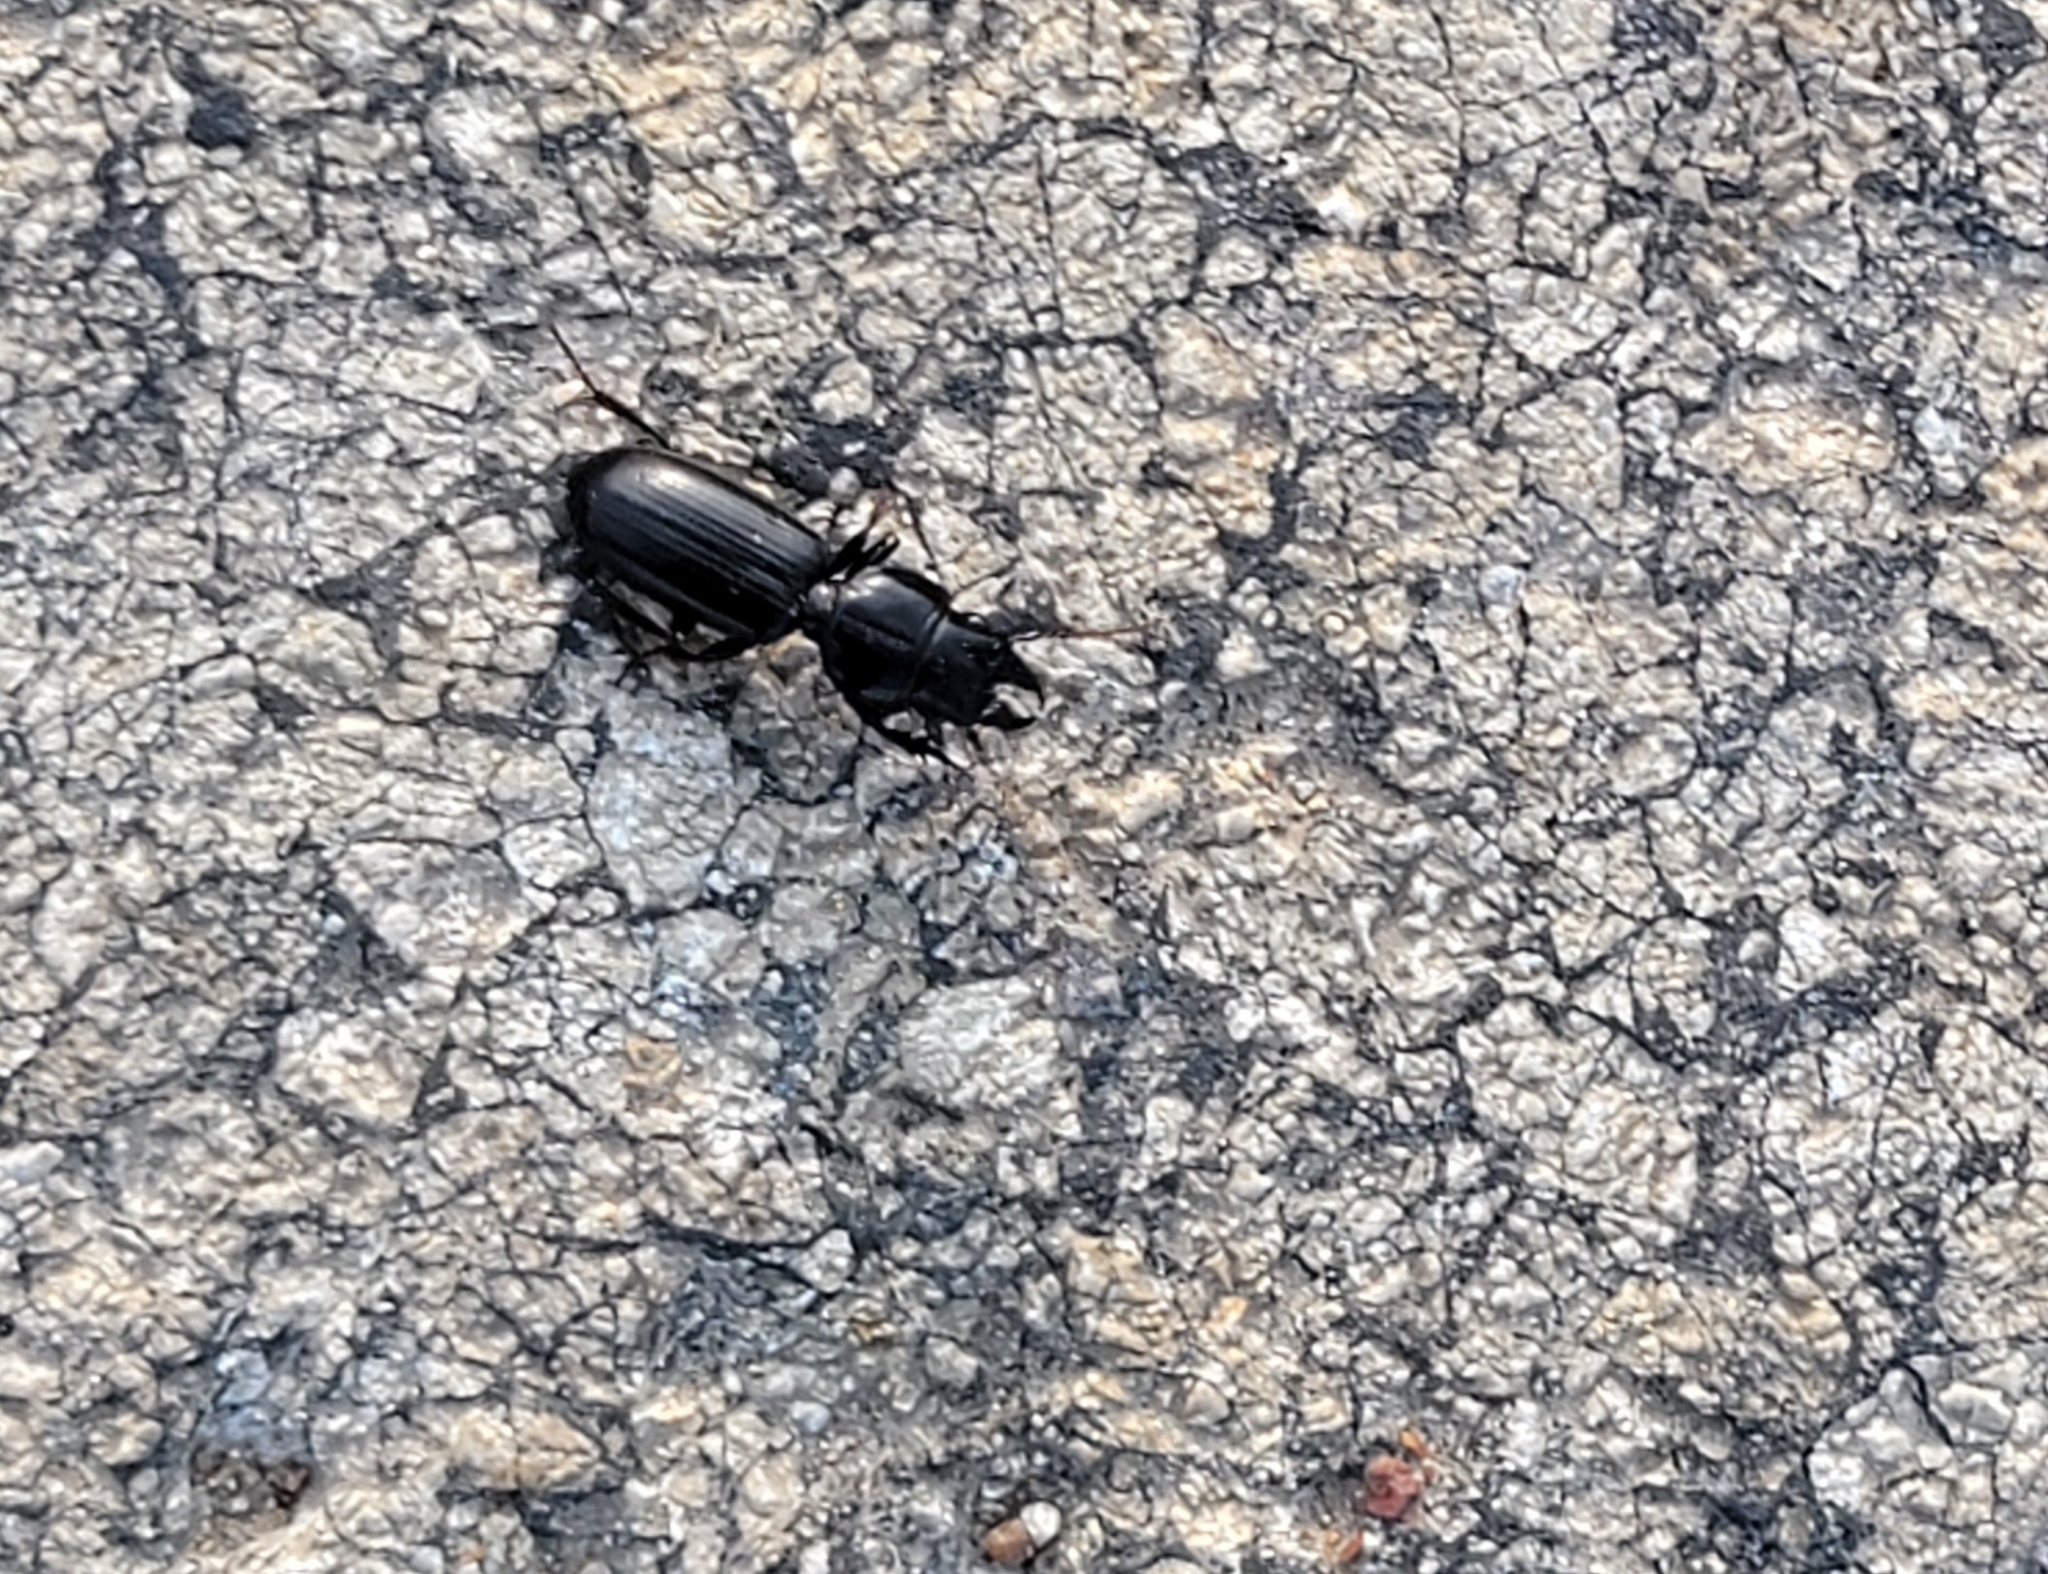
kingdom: Animalia
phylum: Arthropoda
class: Insecta
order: Coleoptera
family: Carabidae
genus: Scarites
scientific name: Scarites subterraneus
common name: Big-headed ground beetle
